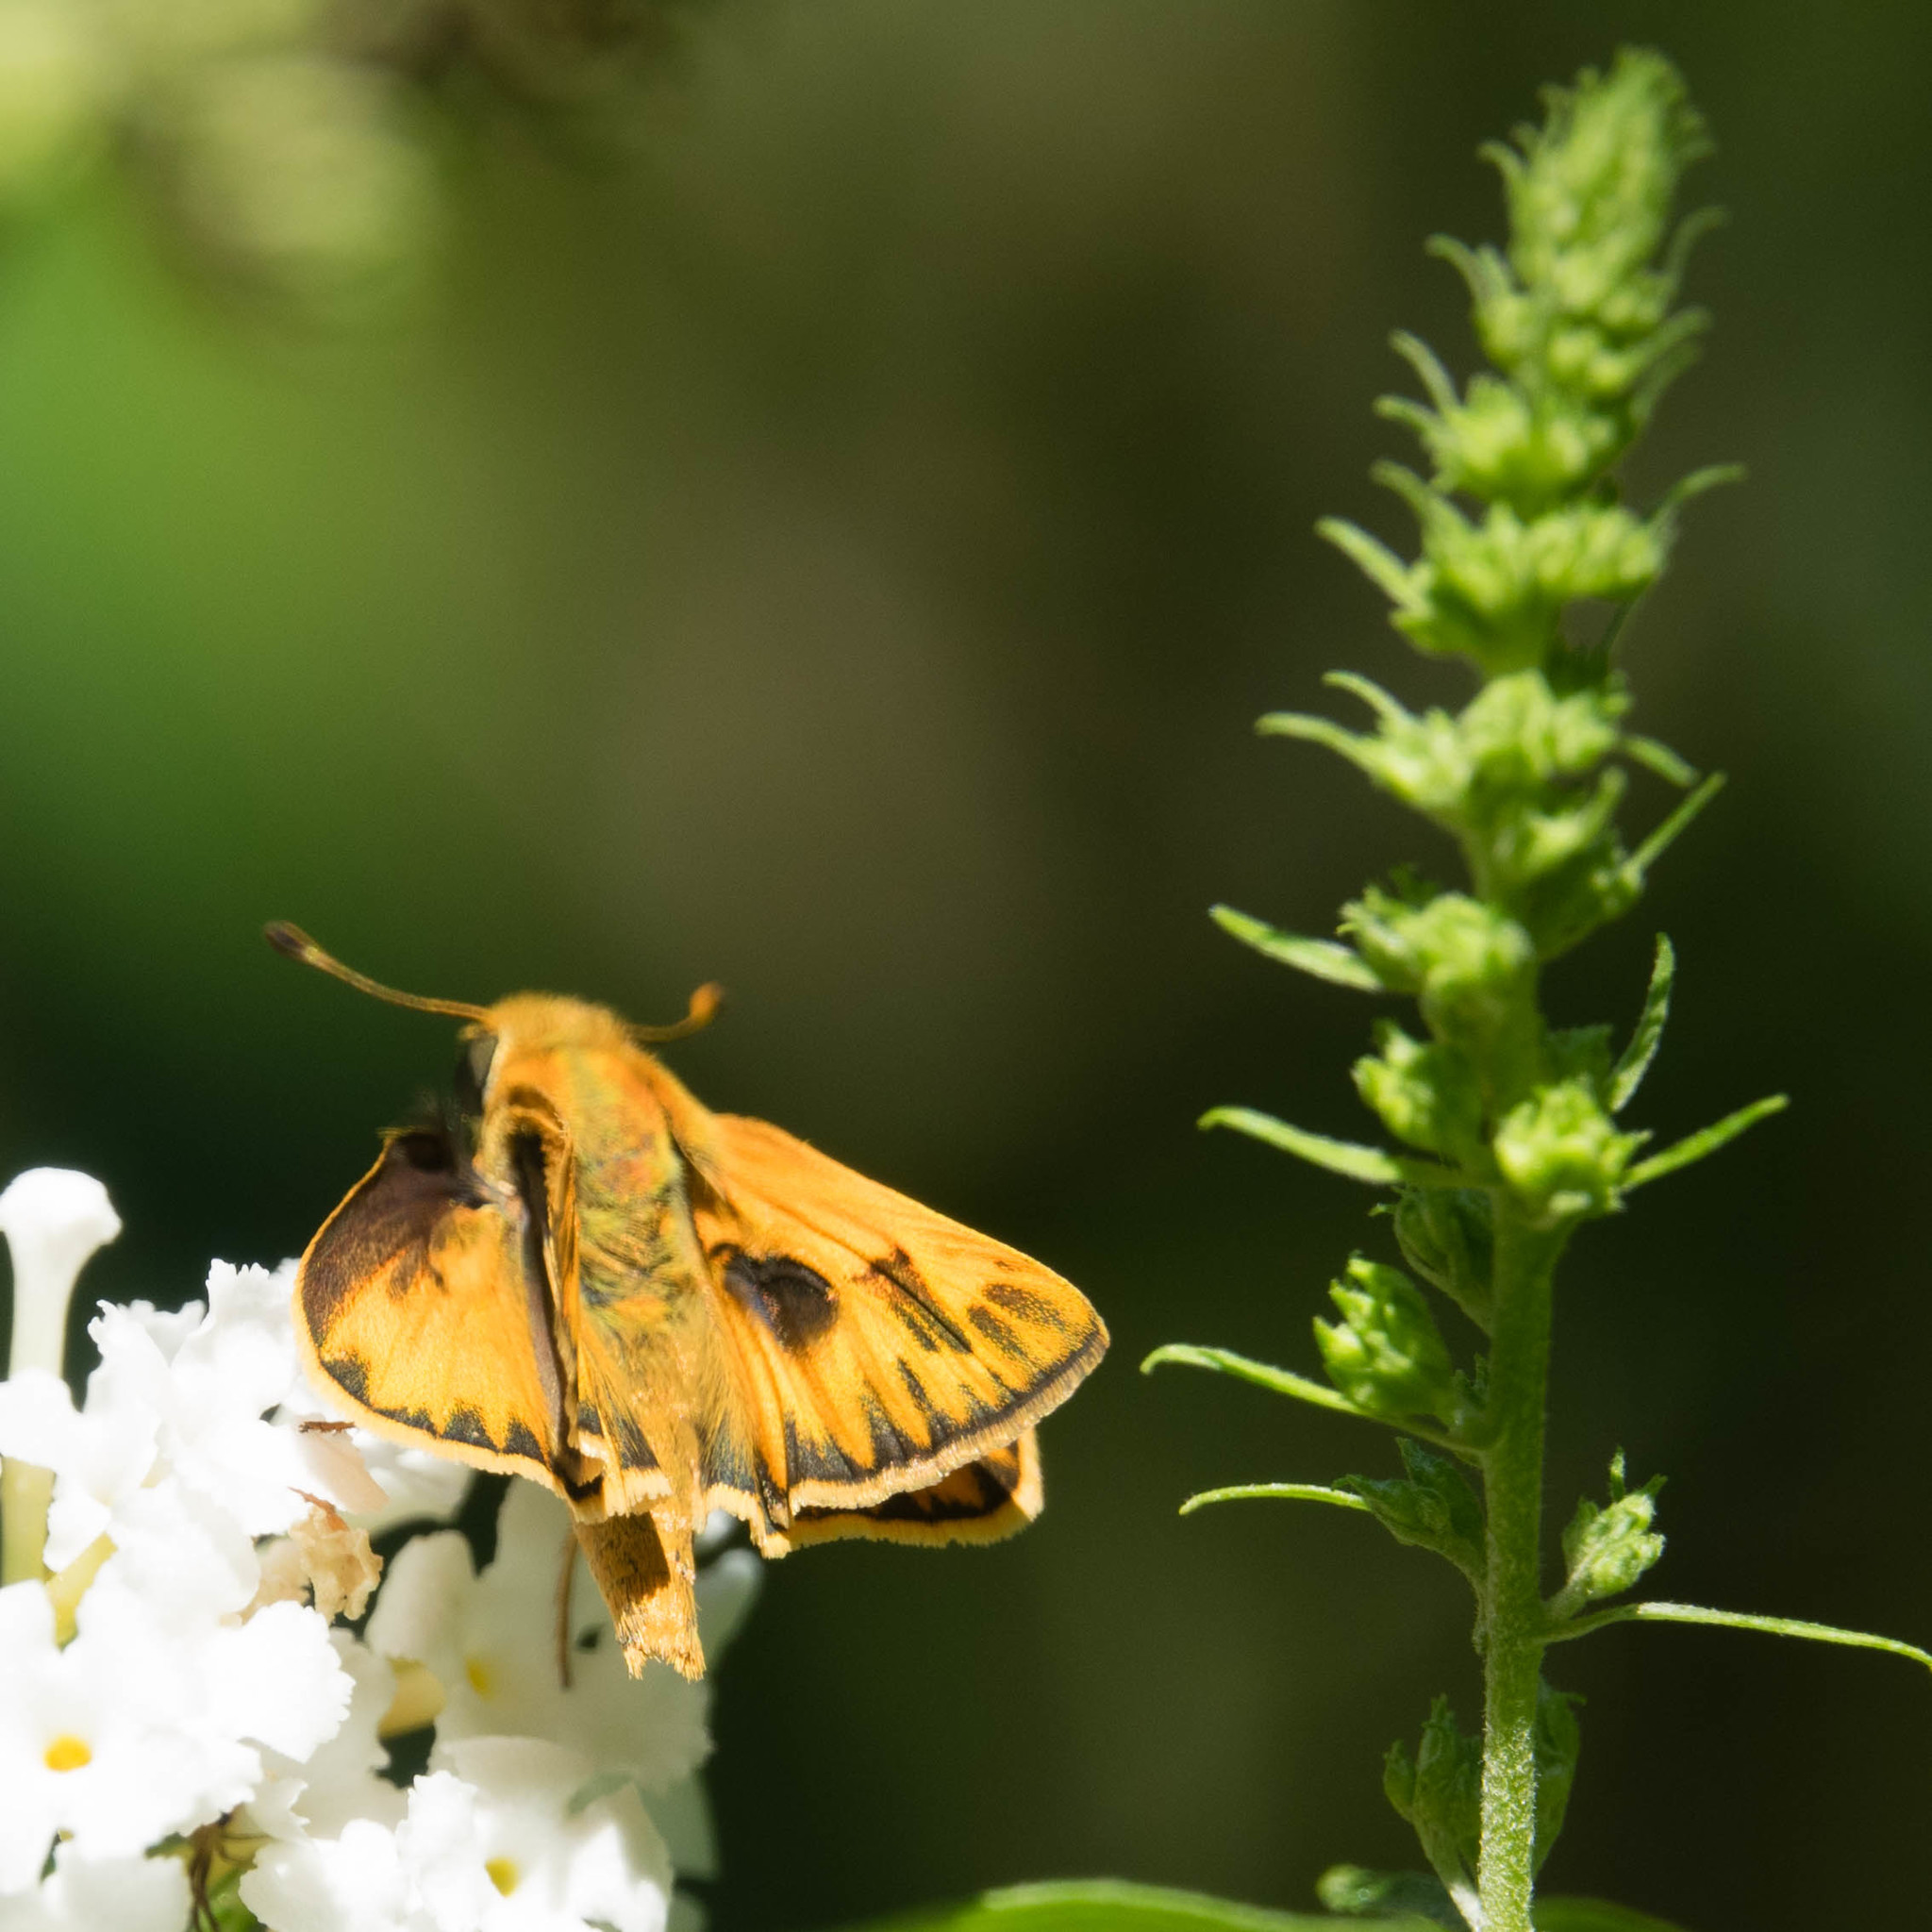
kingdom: Animalia
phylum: Arthropoda
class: Insecta
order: Lepidoptera
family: Hesperiidae
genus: Hylephila
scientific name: Hylephila phyleus
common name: Fiery skipper
